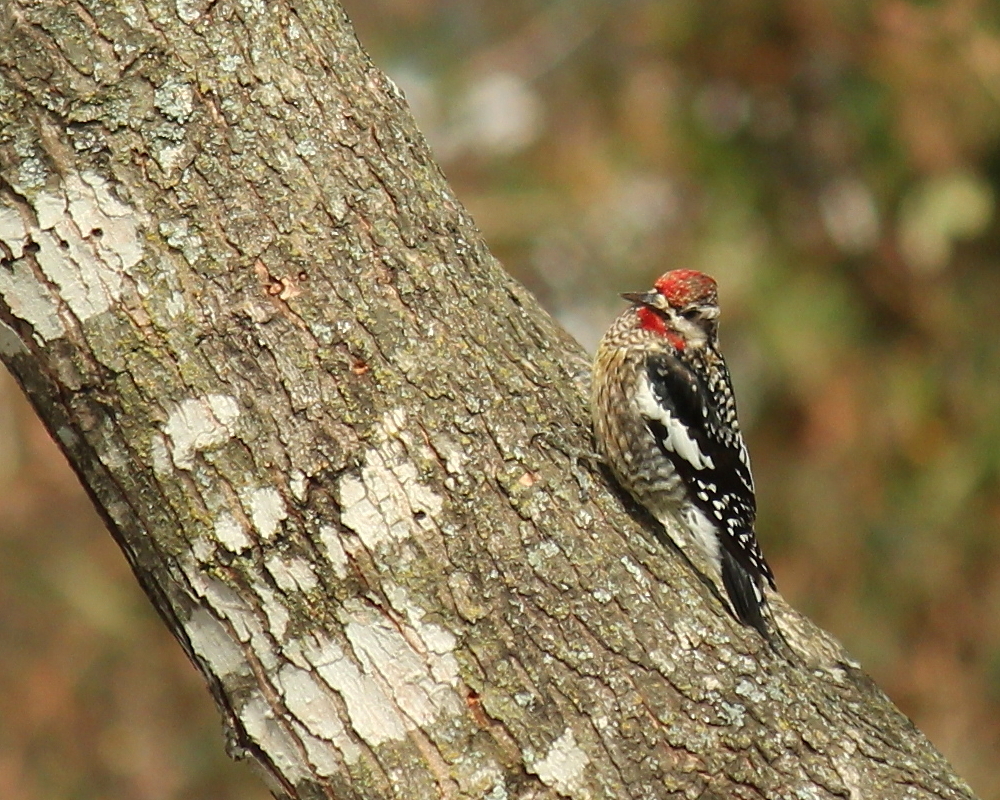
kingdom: Animalia
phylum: Chordata
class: Aves
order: Piciformes
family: Picidae
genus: Sphyrapicus
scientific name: Sphyrapicus varius
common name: Yellow-bellied sapsucker
